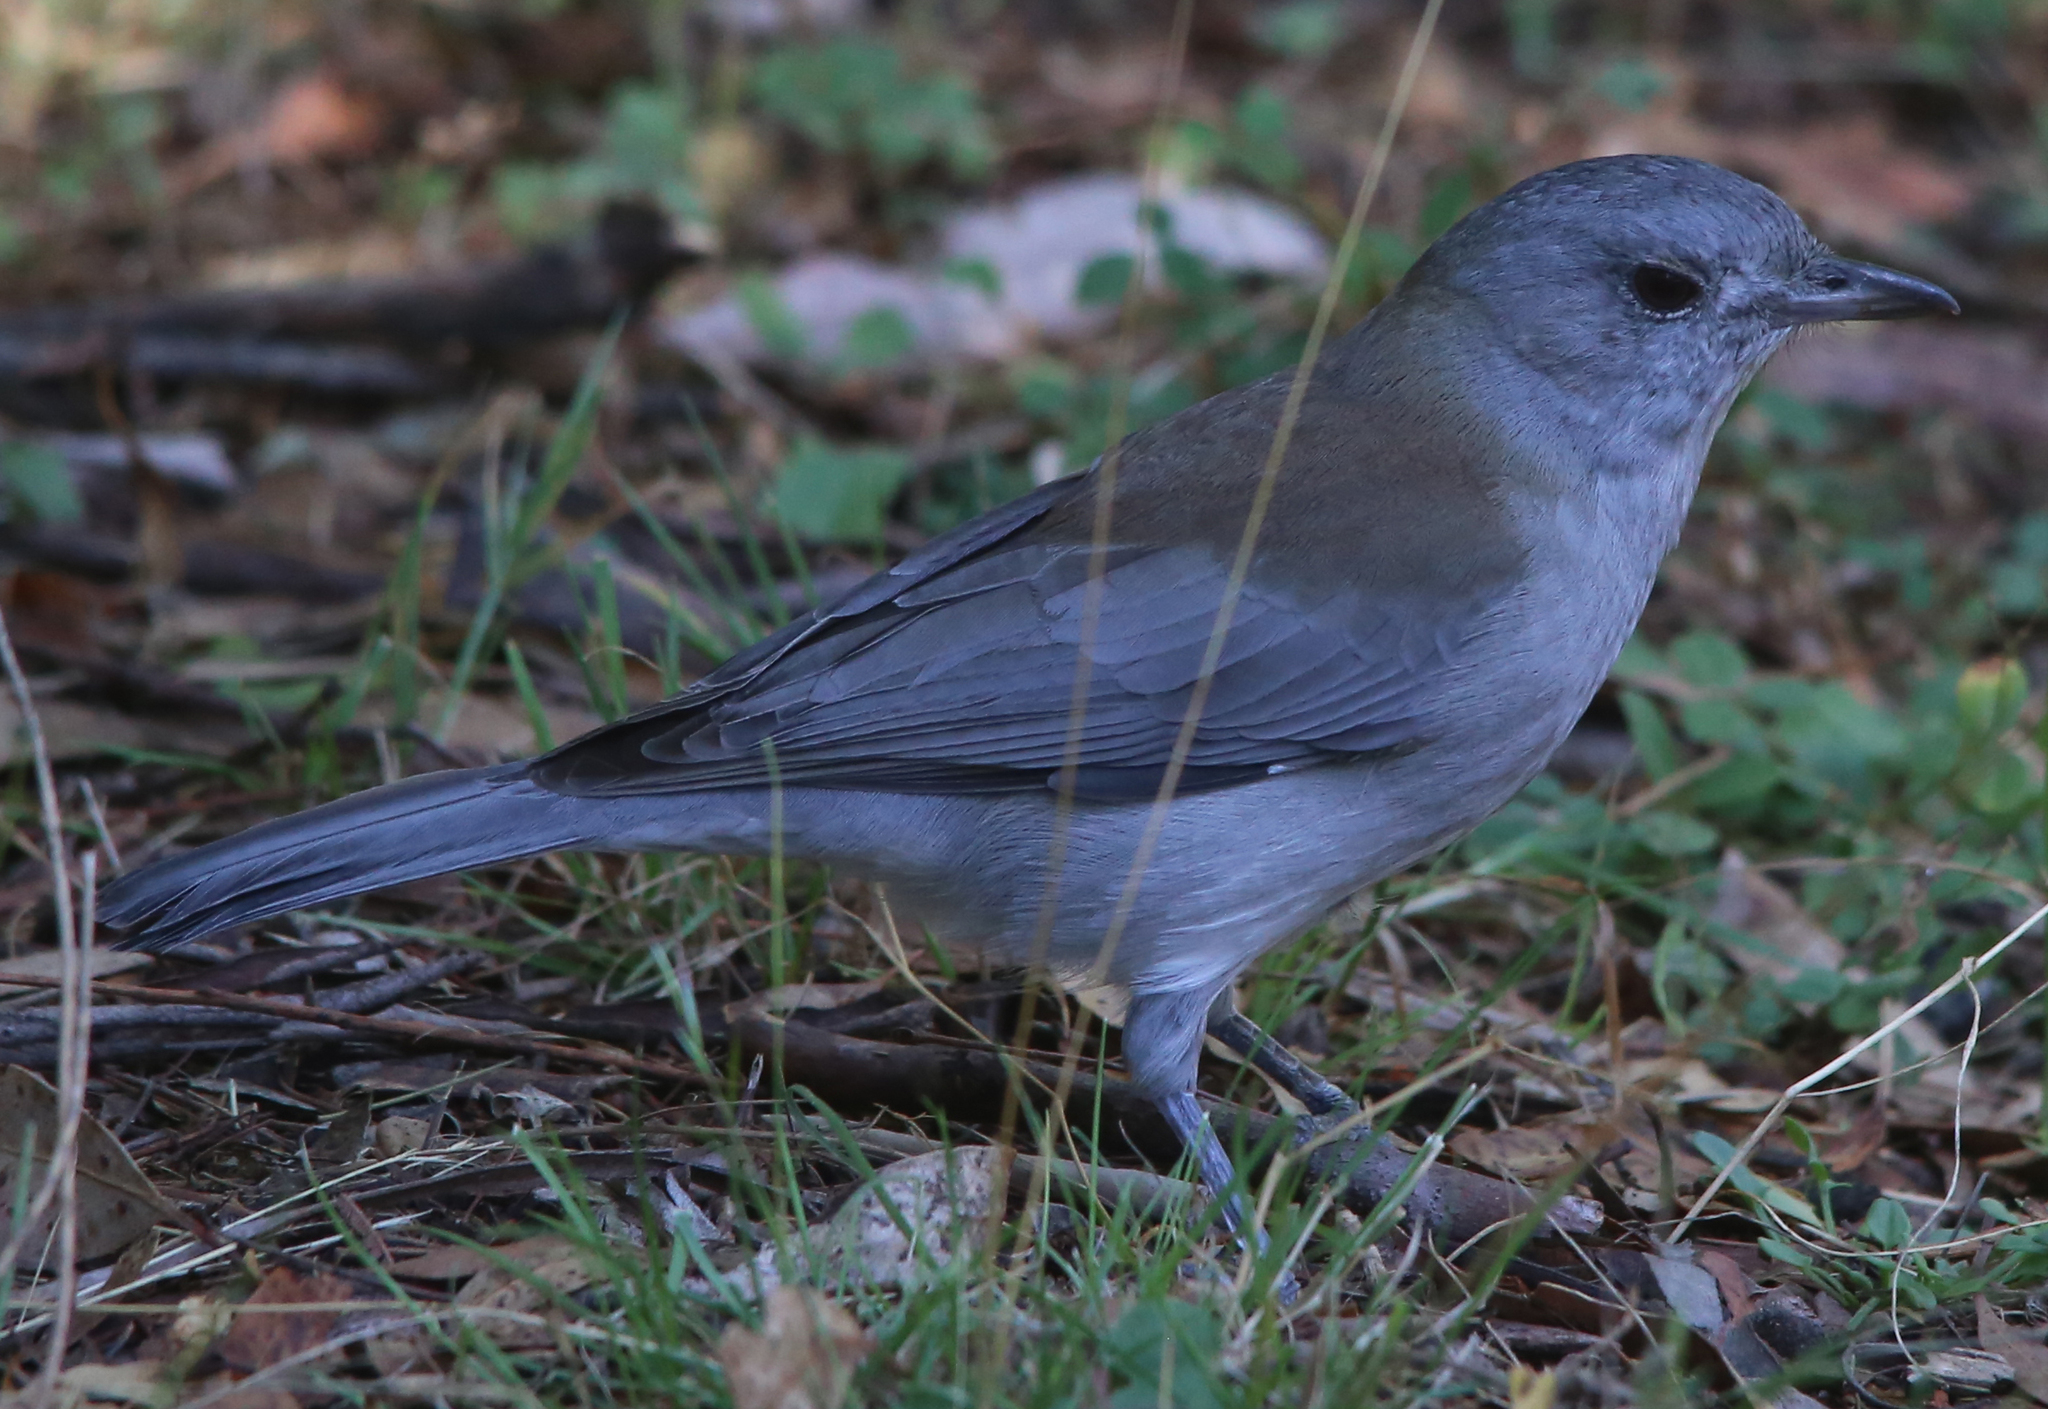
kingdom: Animalia
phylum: Chordata
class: Aves
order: Passeriformes
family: Pachycephalidae
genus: Colluricincla
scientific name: Colluricincla harmonica
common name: Grey shrikethrush
